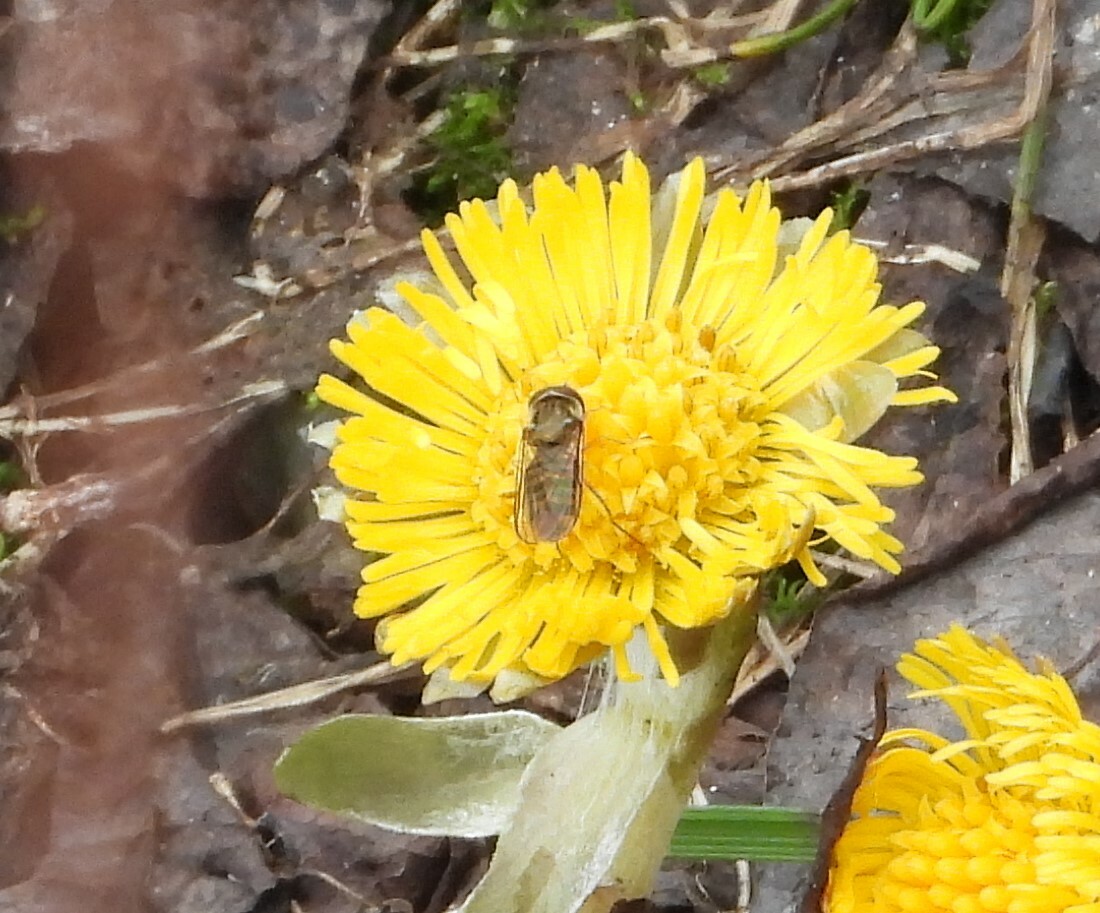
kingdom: Animalia
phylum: Arthropoda
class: Insecta
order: Diptera
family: Syrphidae
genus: Episyrphus
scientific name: Episyrphus balteatus
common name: Marmalade hoverfly
